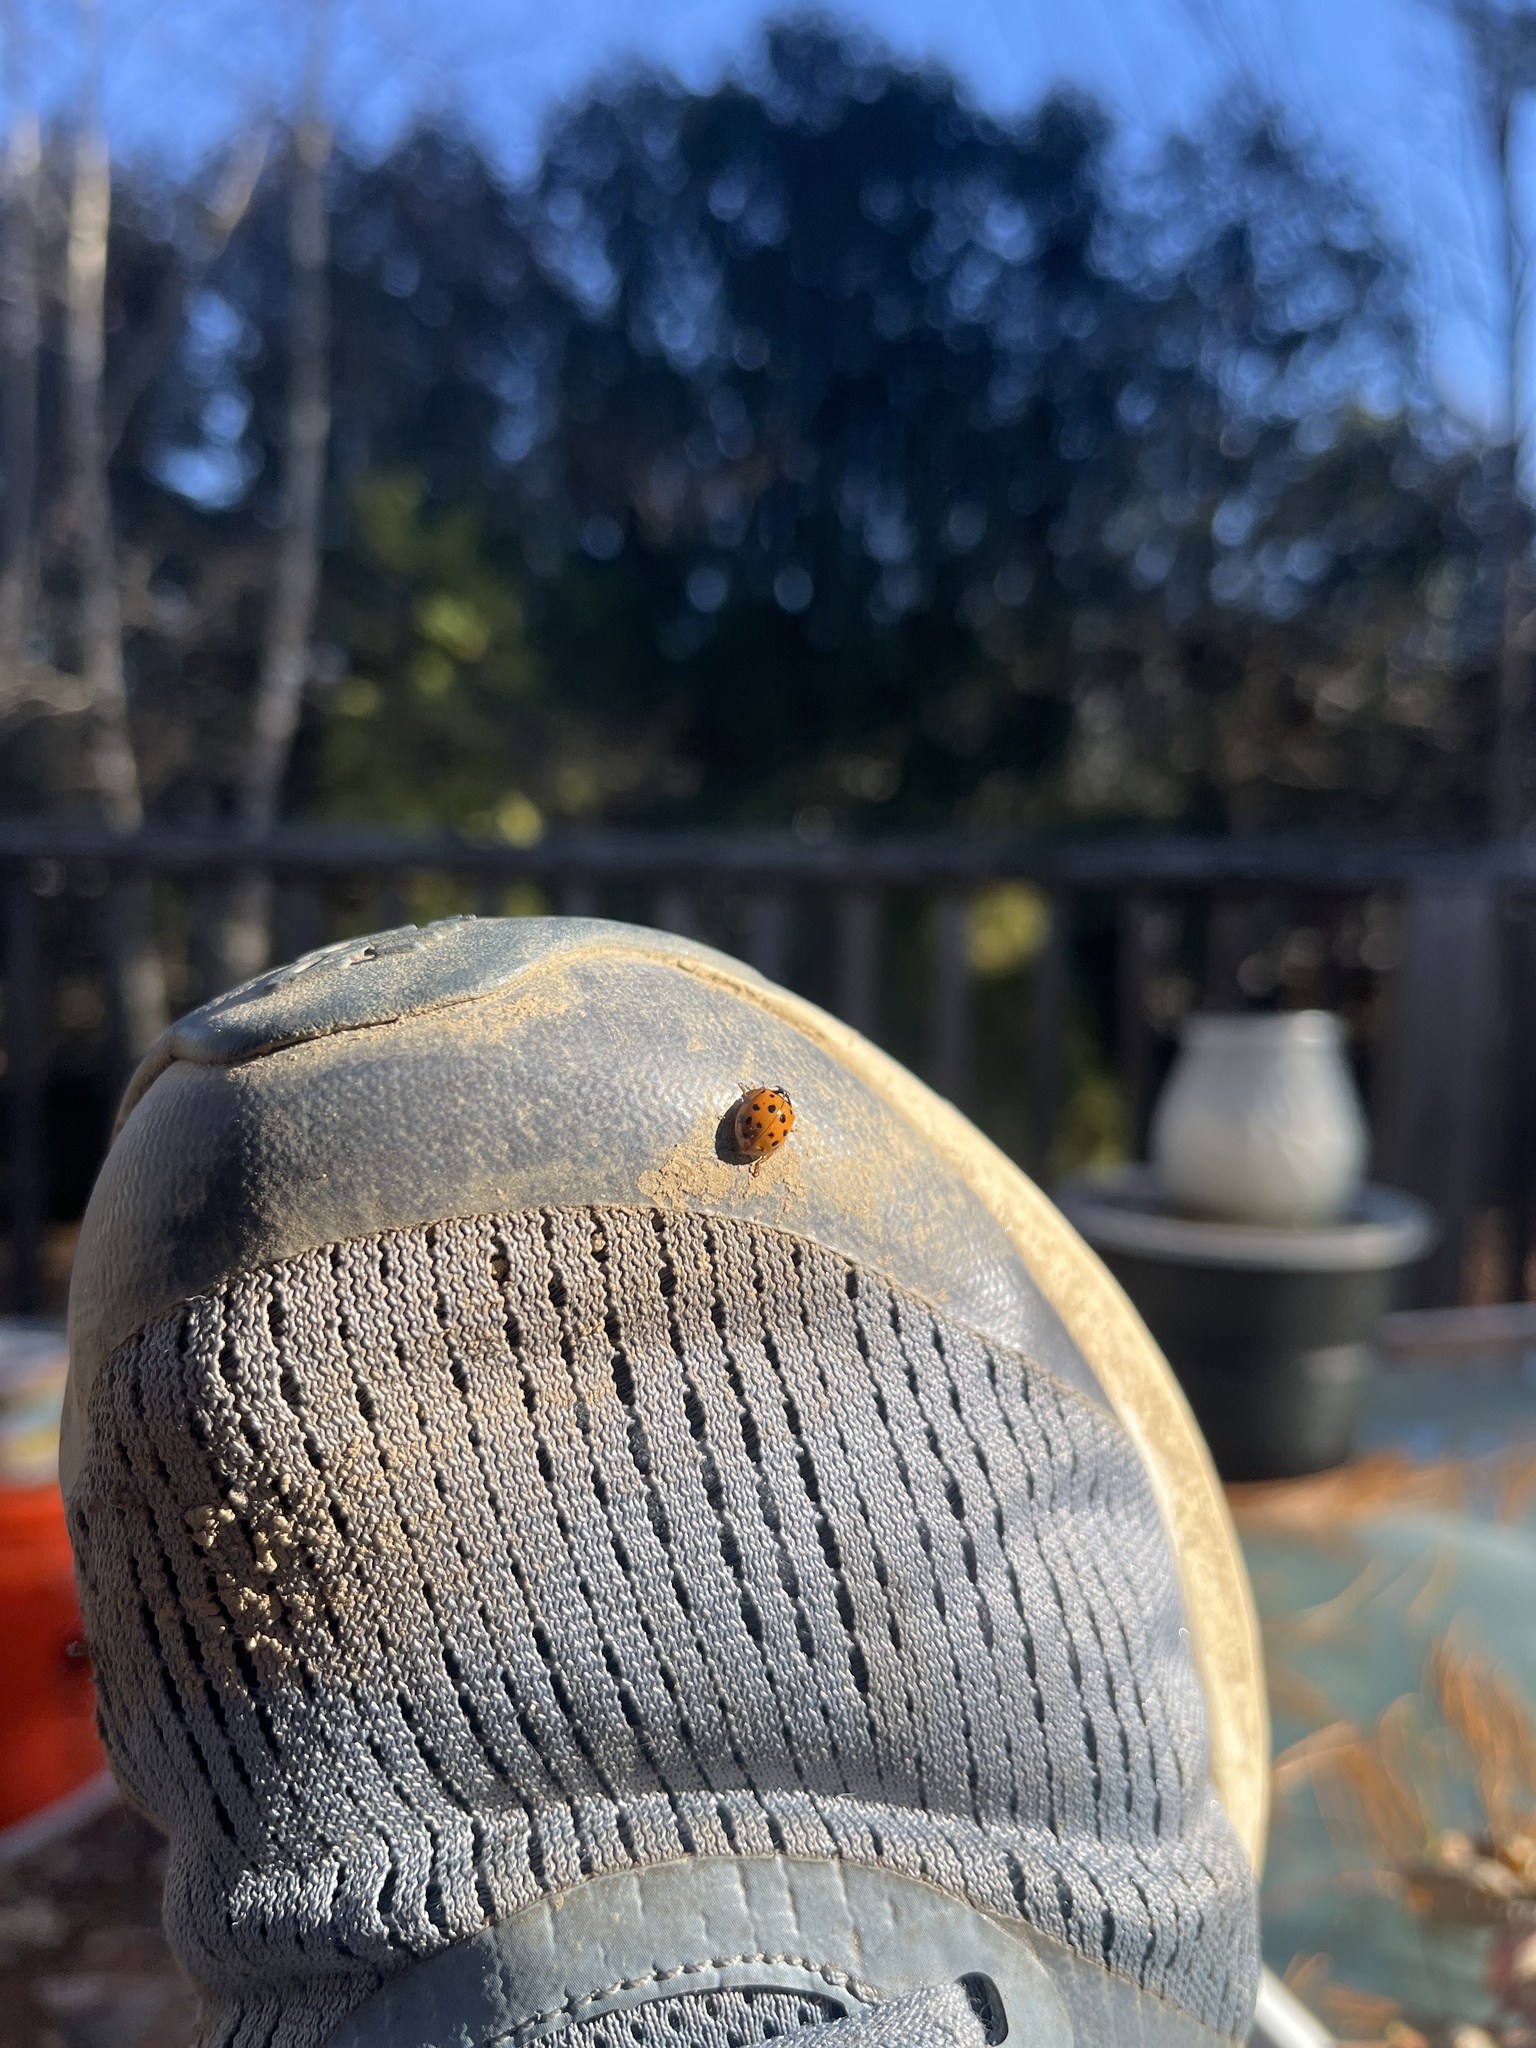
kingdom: Animalia
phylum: Arthropoda
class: Insecta
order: Coleoptera
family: Coccinellidae
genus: Harmonia
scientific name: Harmonia axyridis
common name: Harlequin ladybird
